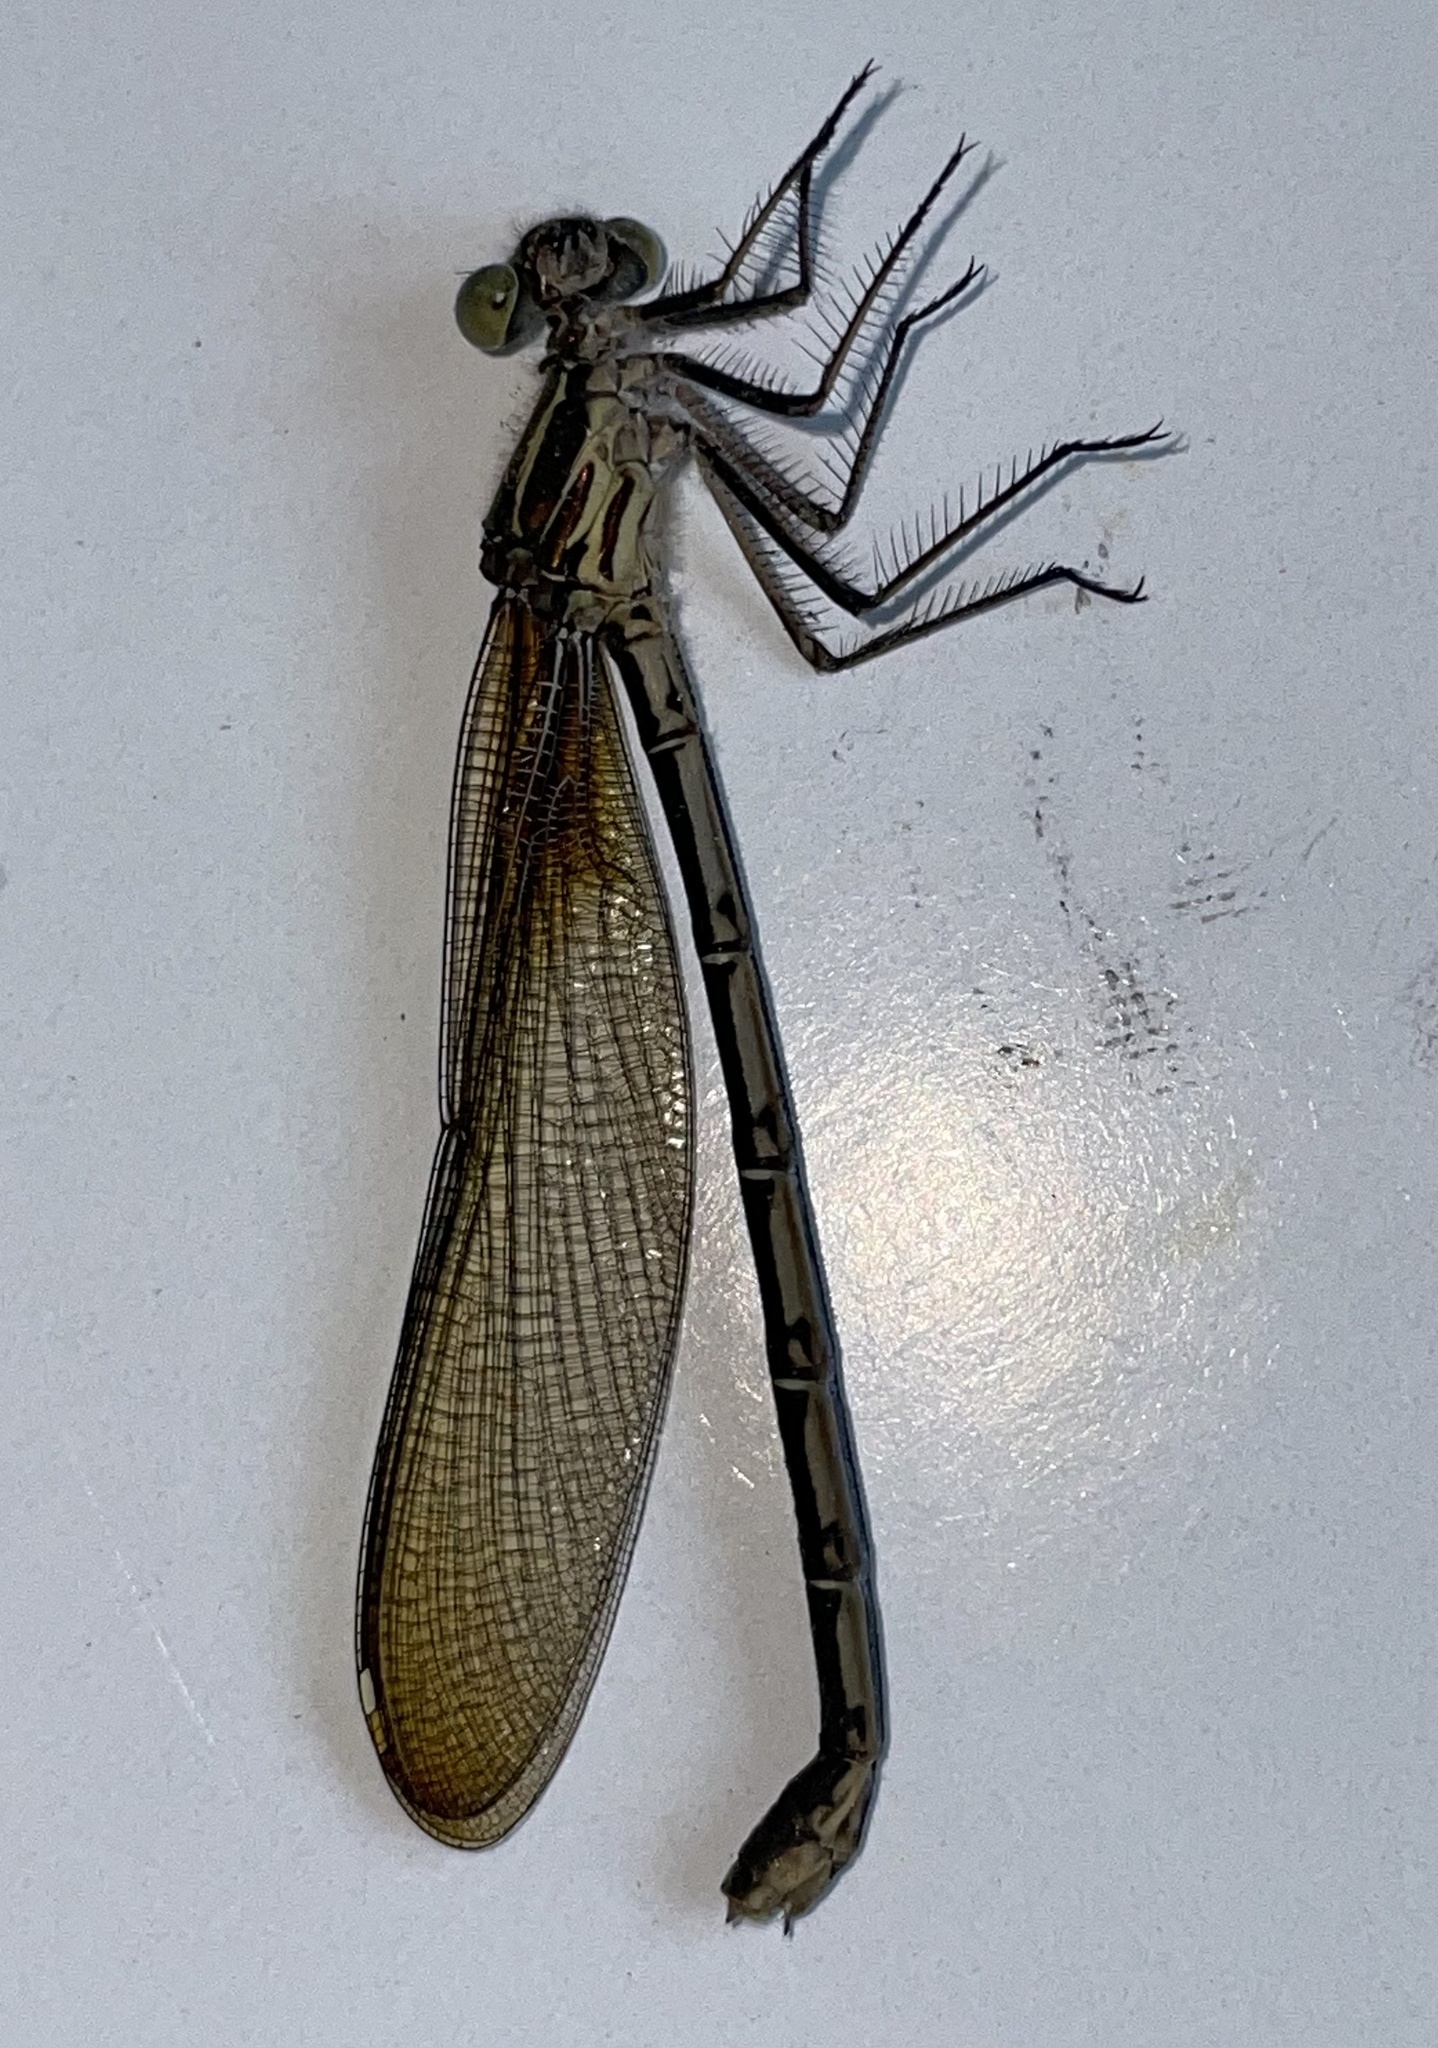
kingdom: Animalia
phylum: Arthropoda
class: Insecta
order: Odonata
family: Calopterygidae
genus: Hetaerina
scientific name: Hetaerina americana
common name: American rubyspot
